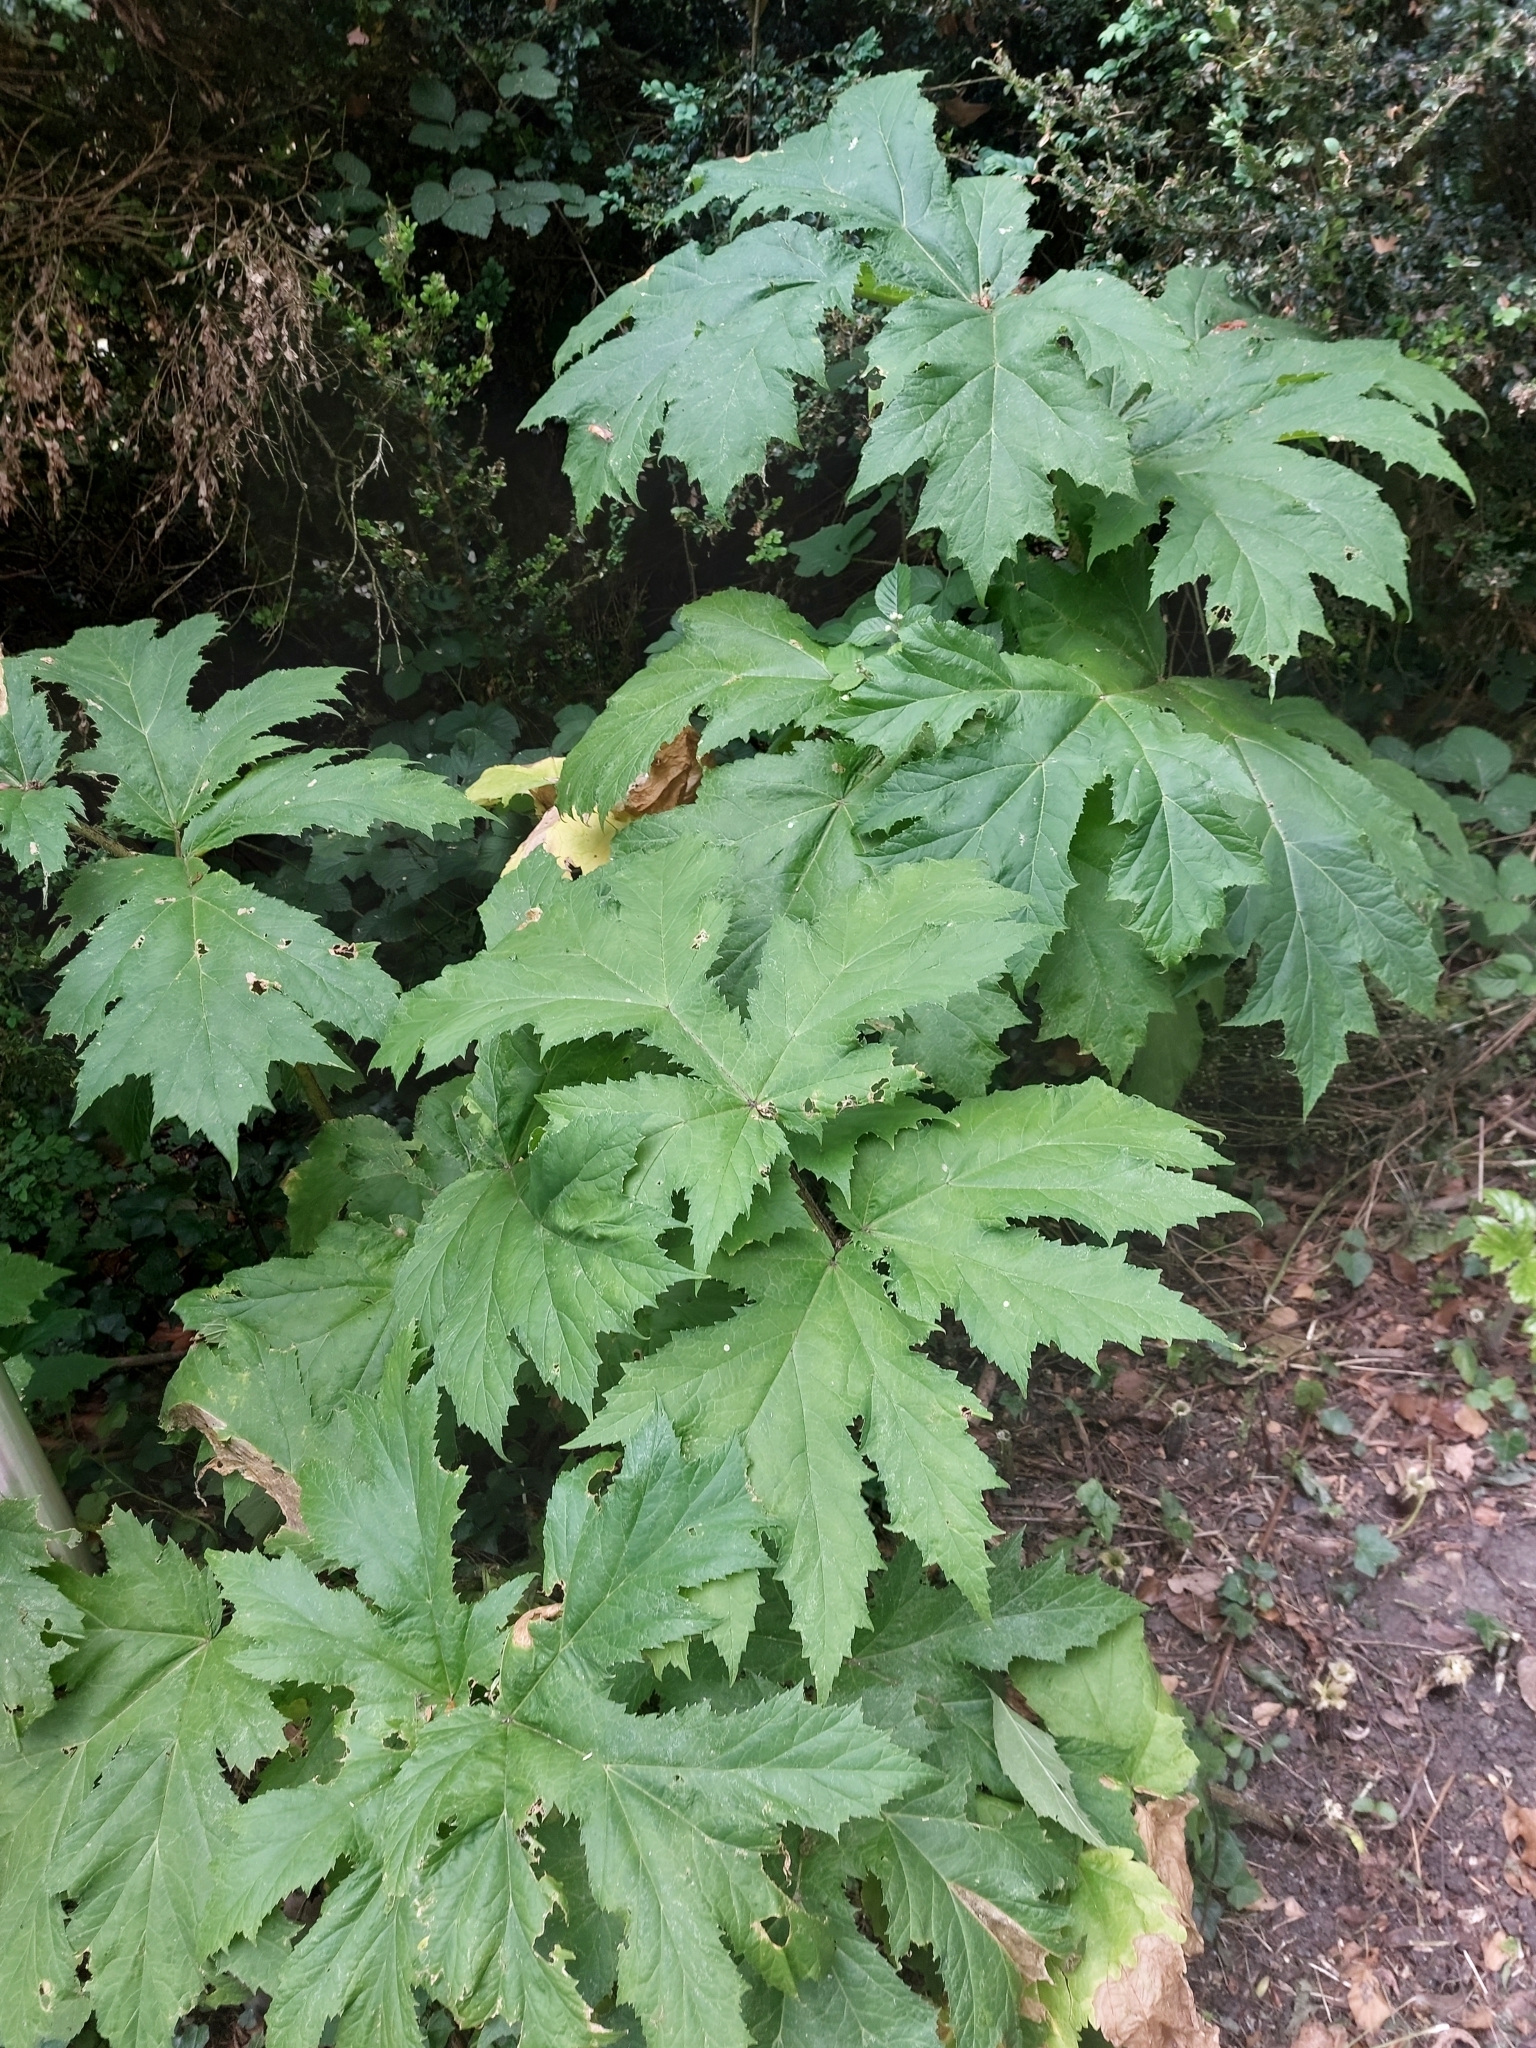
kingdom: Plantae
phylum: Tracheophyta
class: Magnoliopsida
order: Apiales
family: Apiaceae
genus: Heracleum
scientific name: Heracleum mantegazzianum
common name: Giant hogweed
